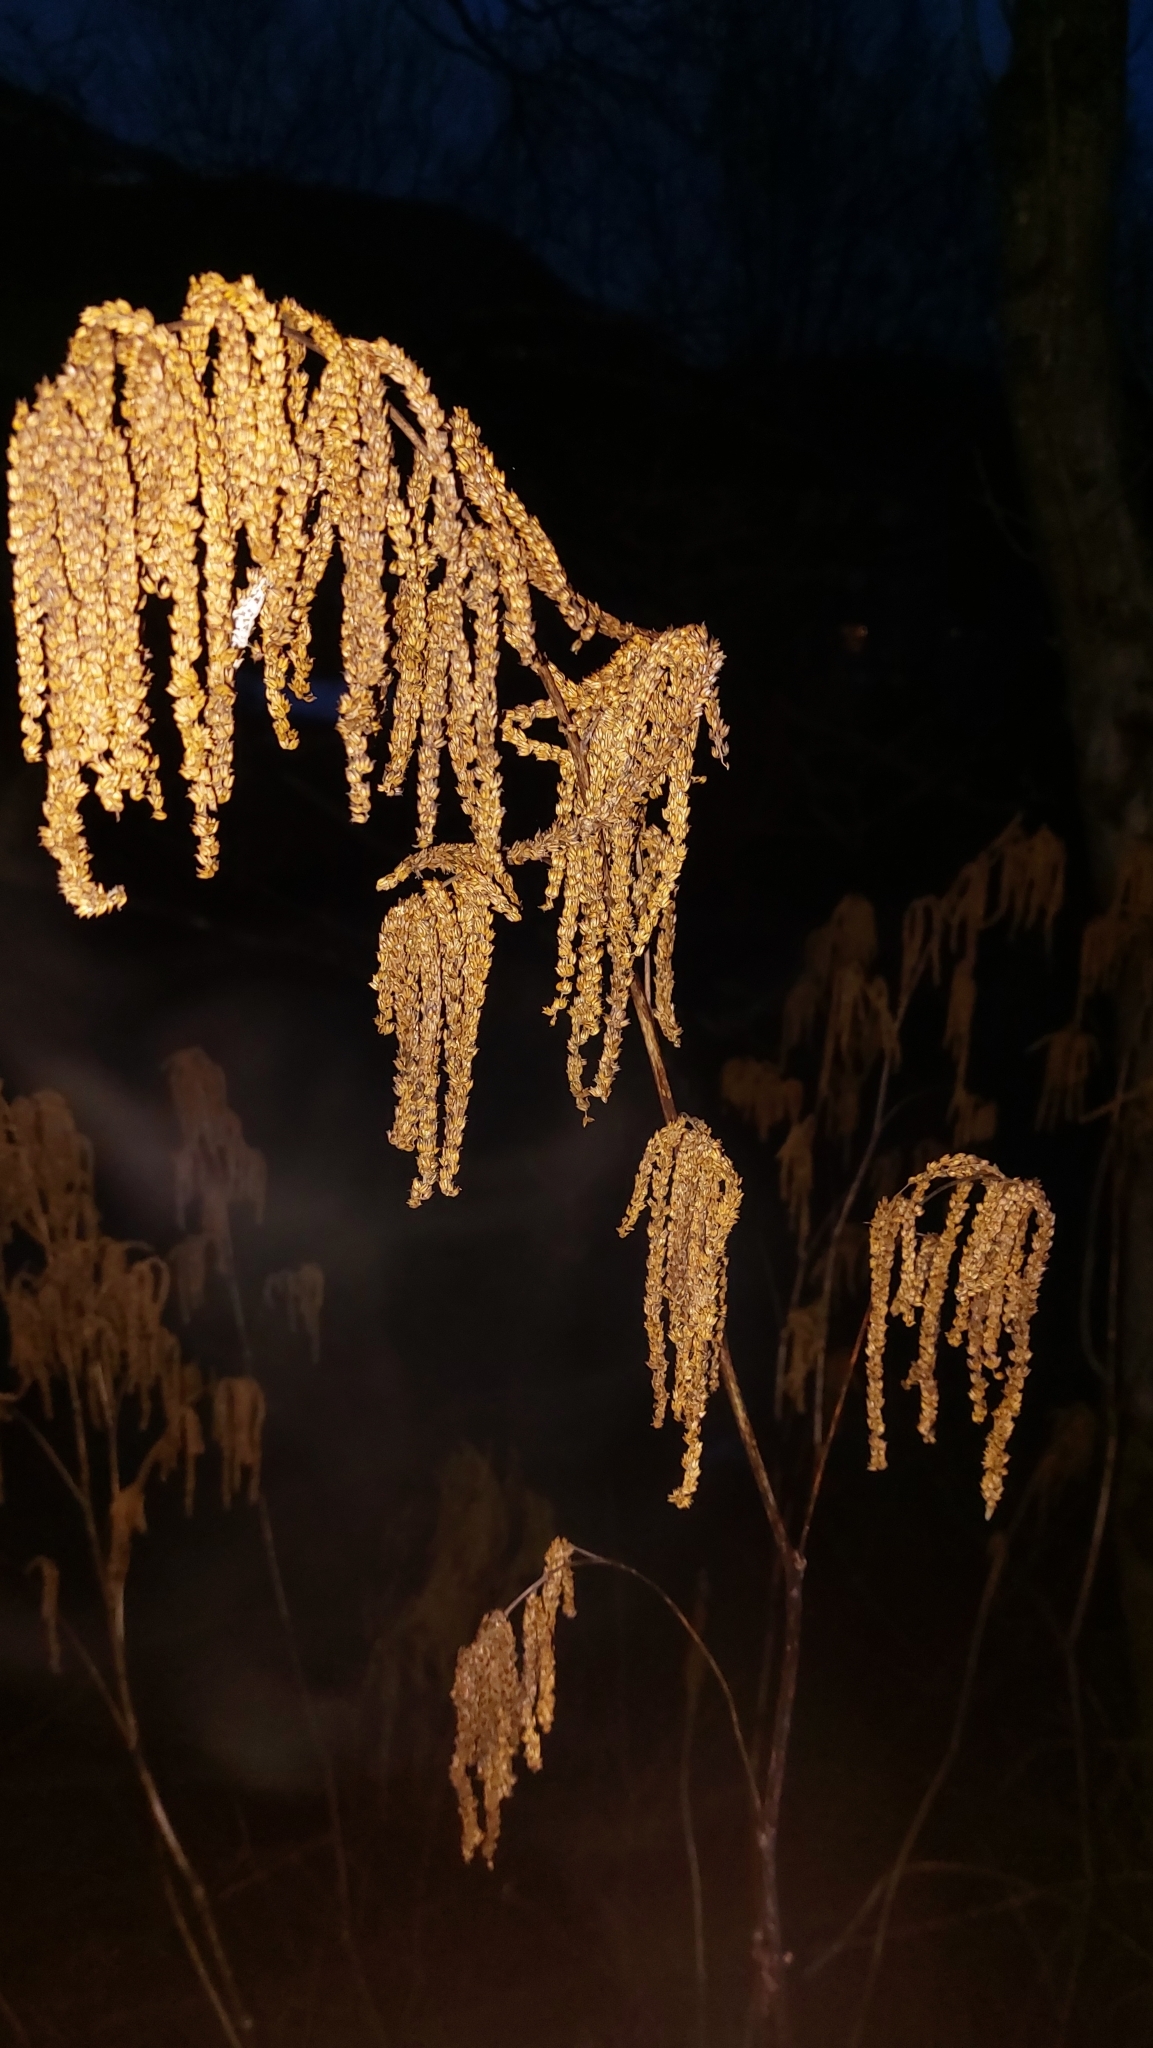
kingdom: Plantae
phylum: Tracheophyta
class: Magnoliopsida
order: Rosales
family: Rosaceae
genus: Aruncus
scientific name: Aruncus dioicus
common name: Buck's-beard
